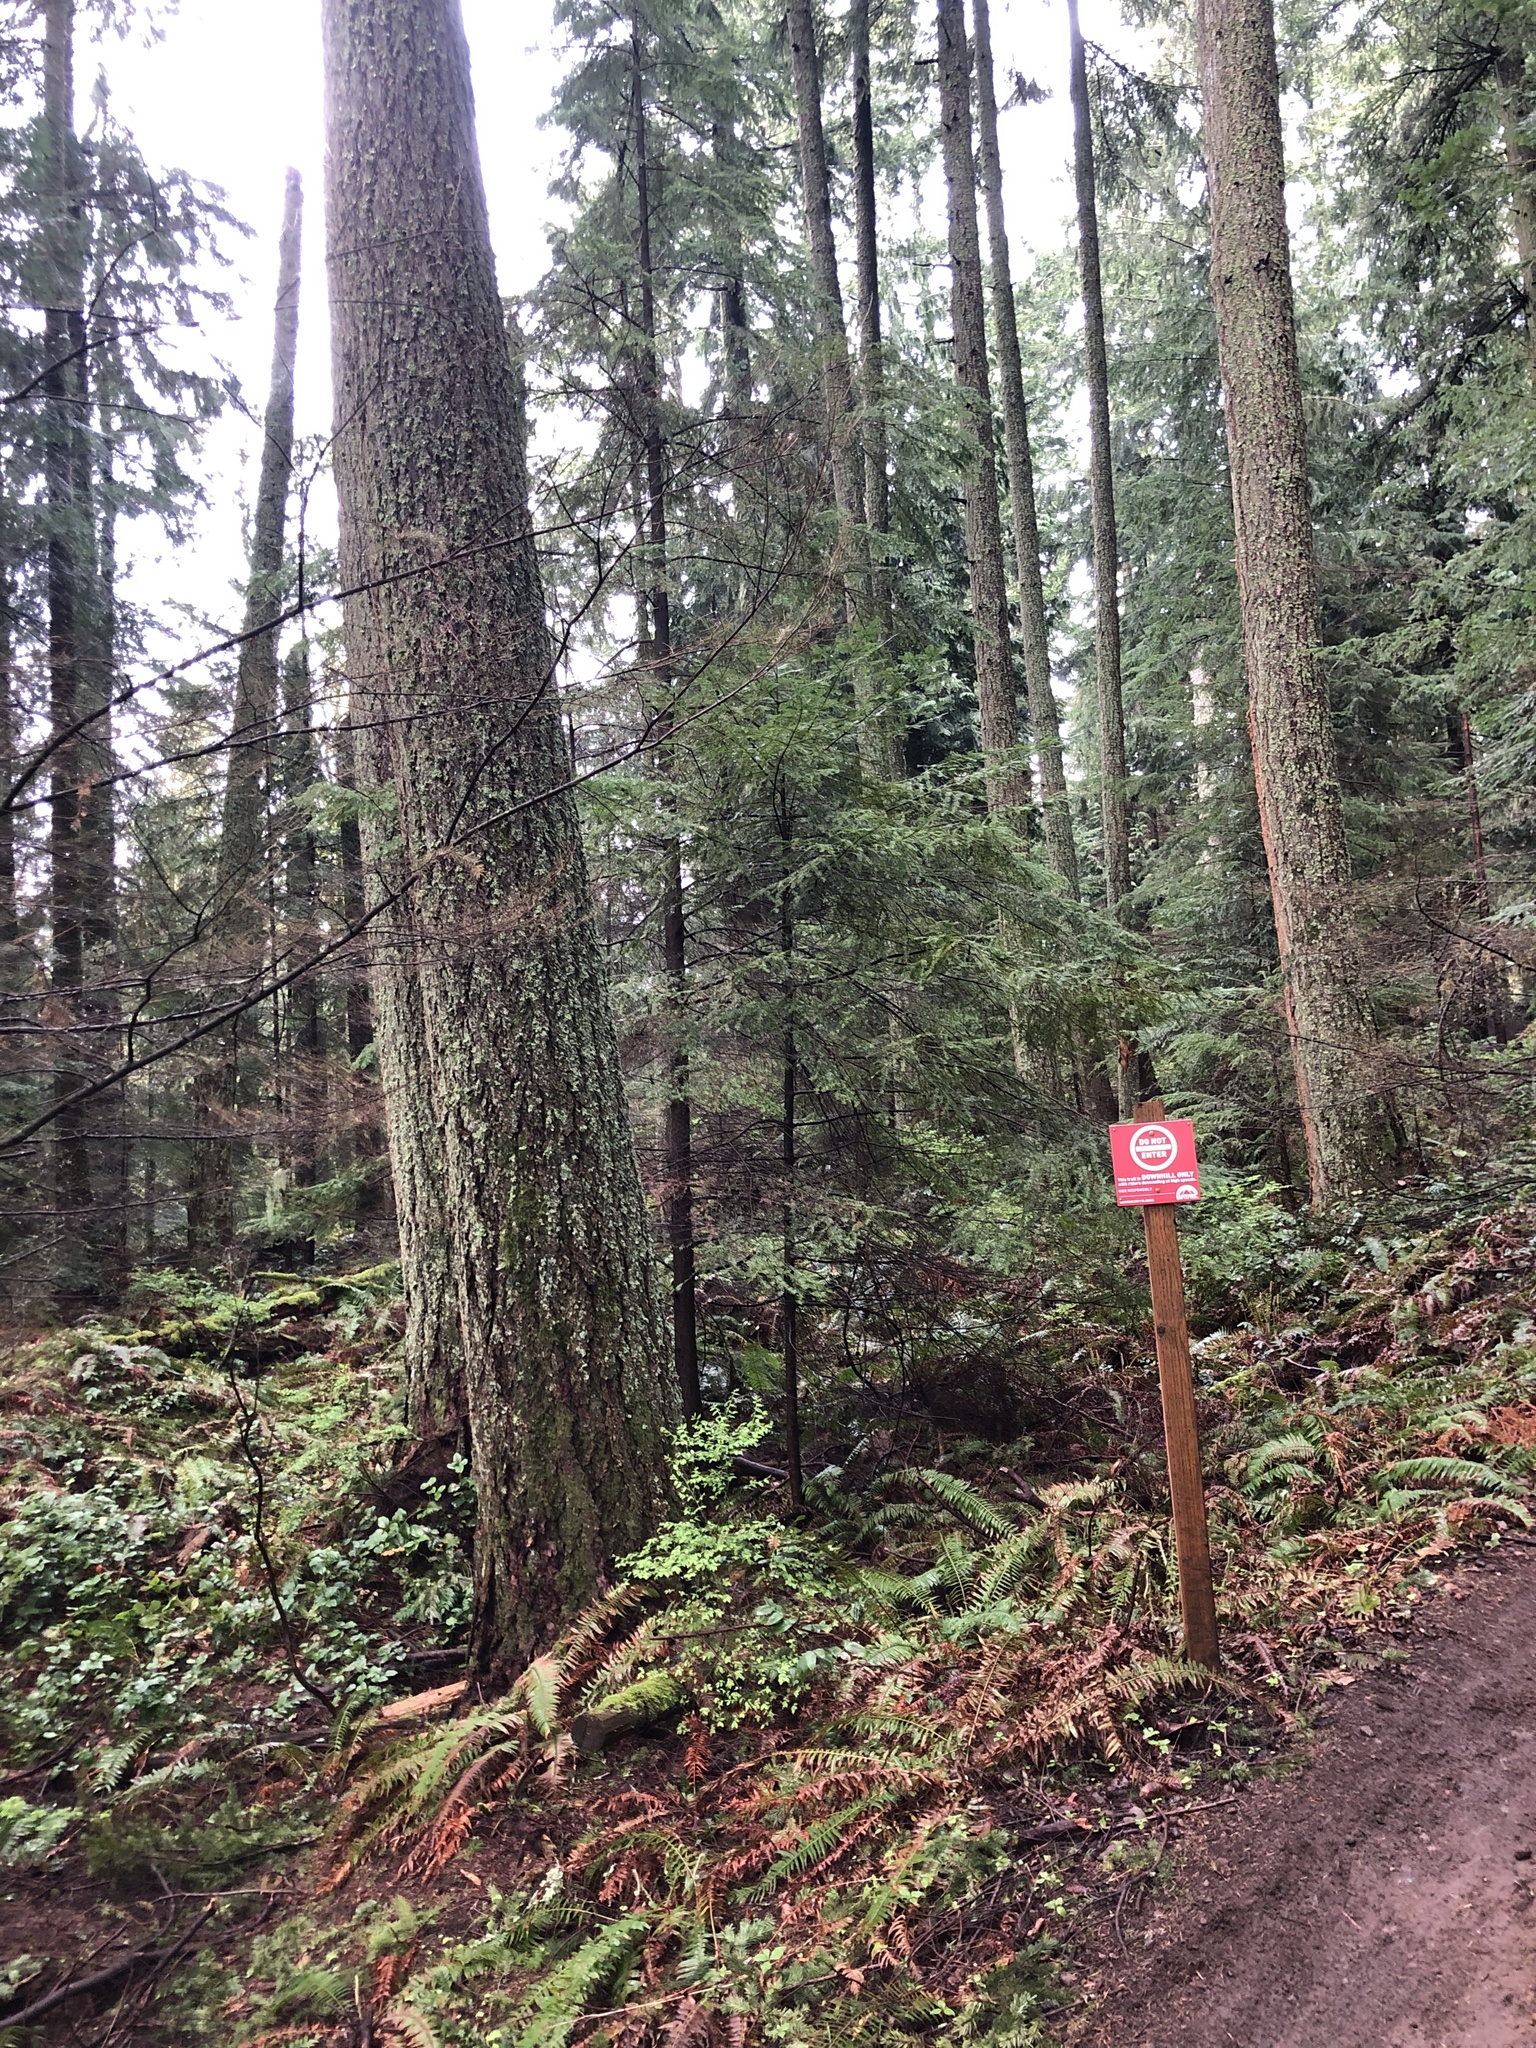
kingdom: Plantae
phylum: Tracheophyta
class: Pinopsida
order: Pinales
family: Pinaceae
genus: Abies
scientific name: Abies grandis
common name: Giant fir
